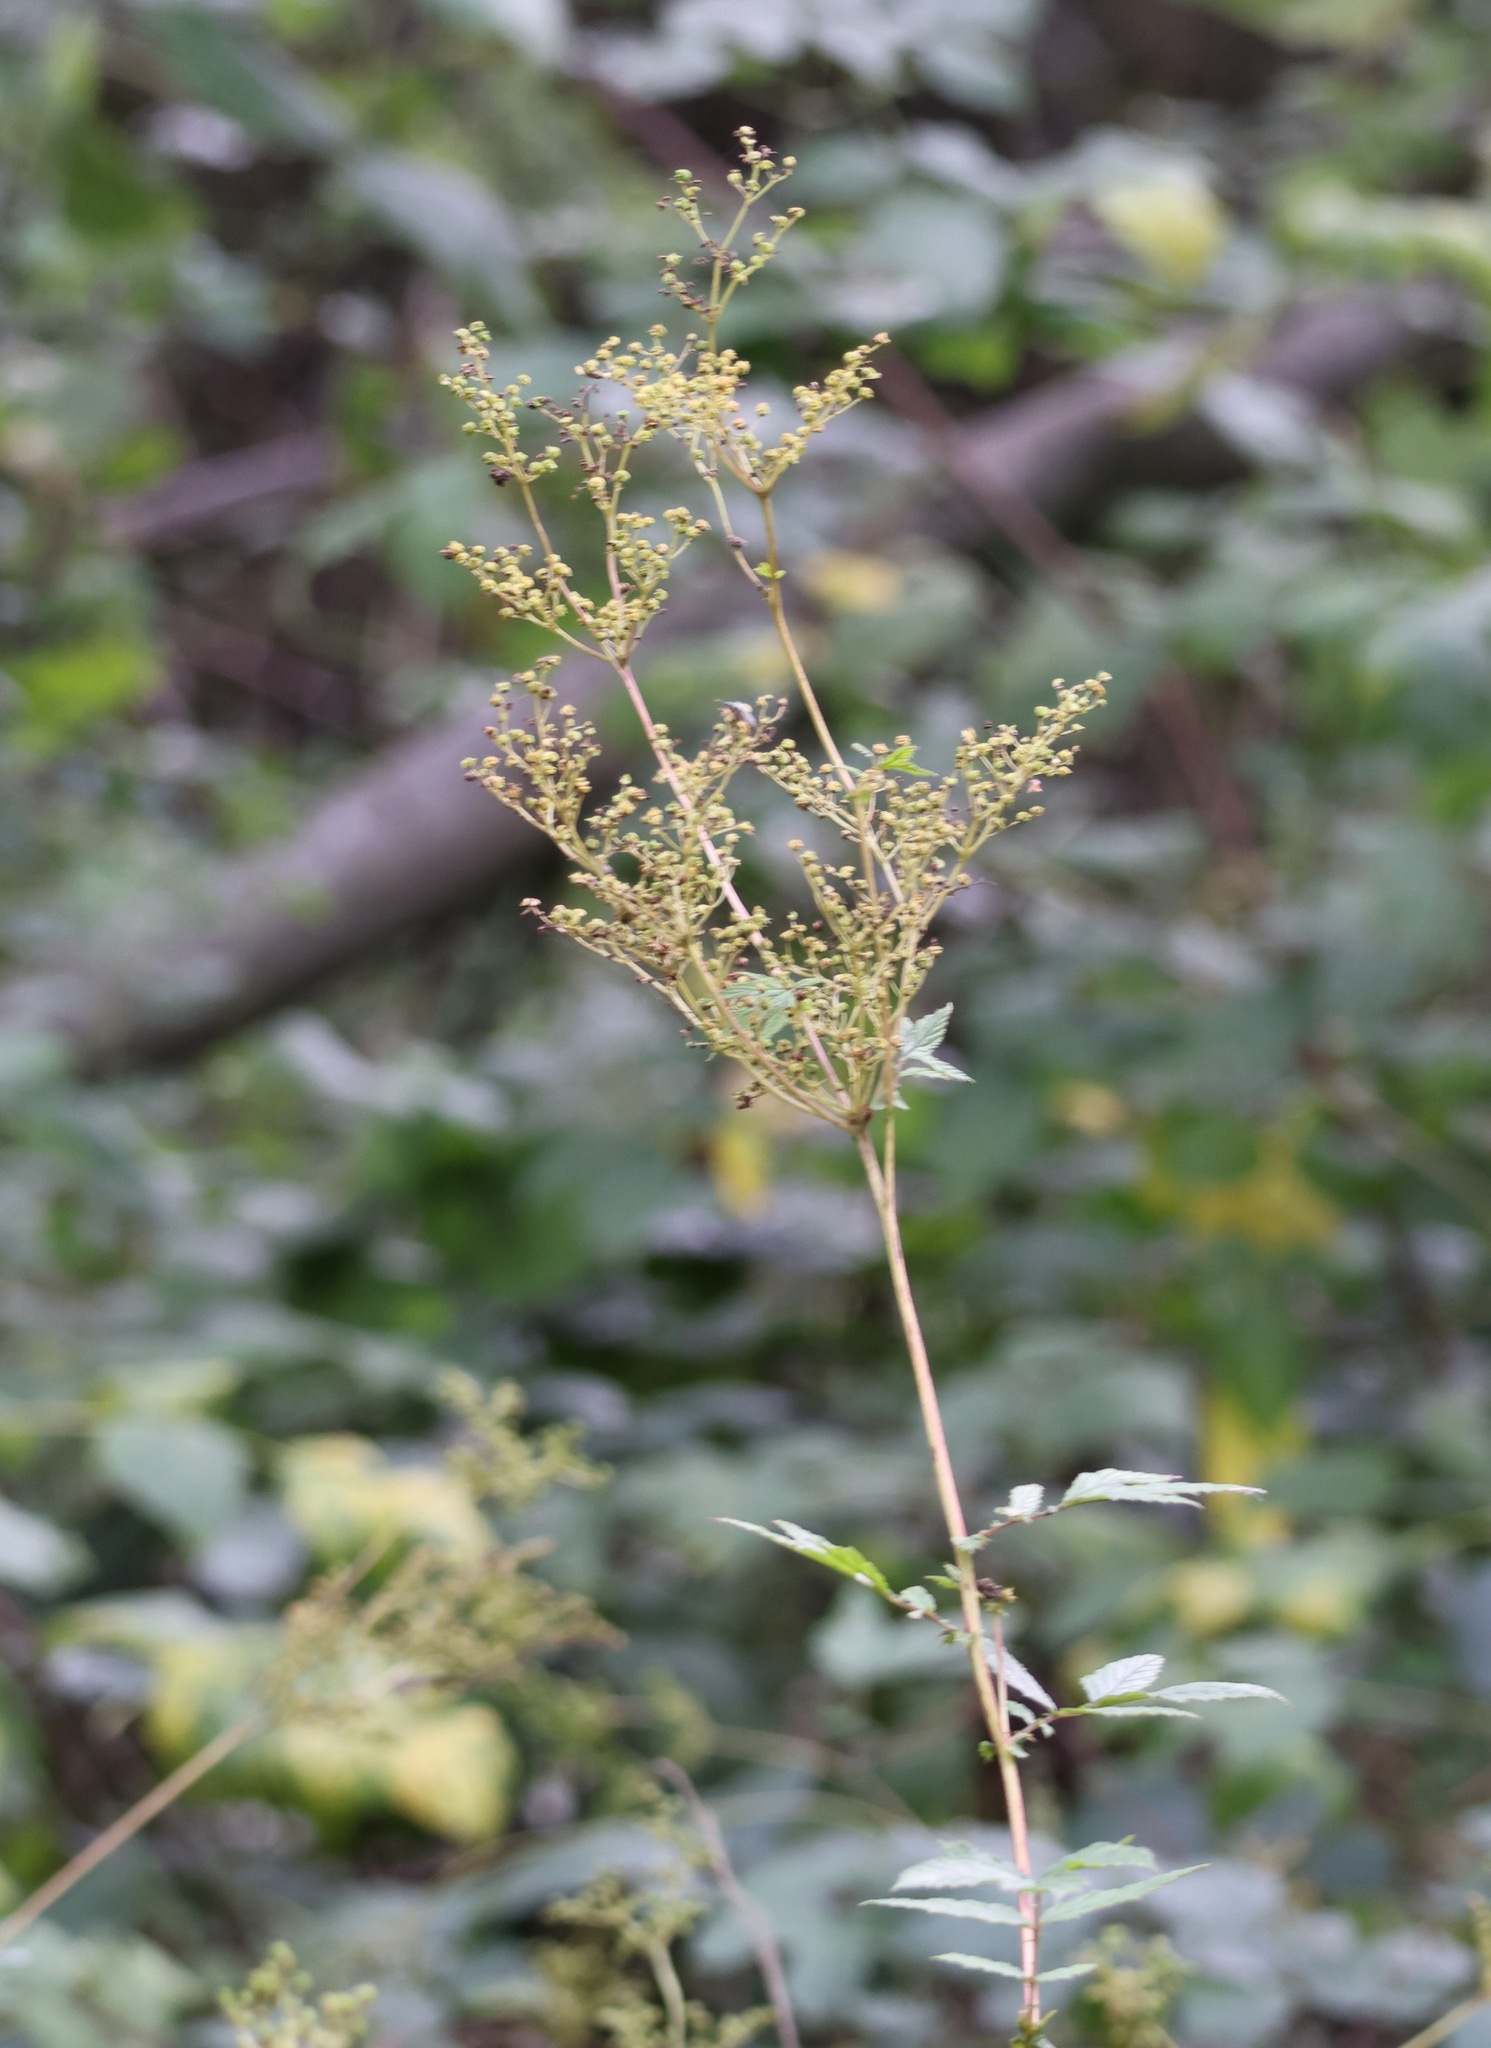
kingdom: Plantae
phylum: Tracheophyta
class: Magnoliopsida
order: Rosales
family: Rosaceae
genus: Filipendula
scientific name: Filipendula ulmaria
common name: Meadowsweet
